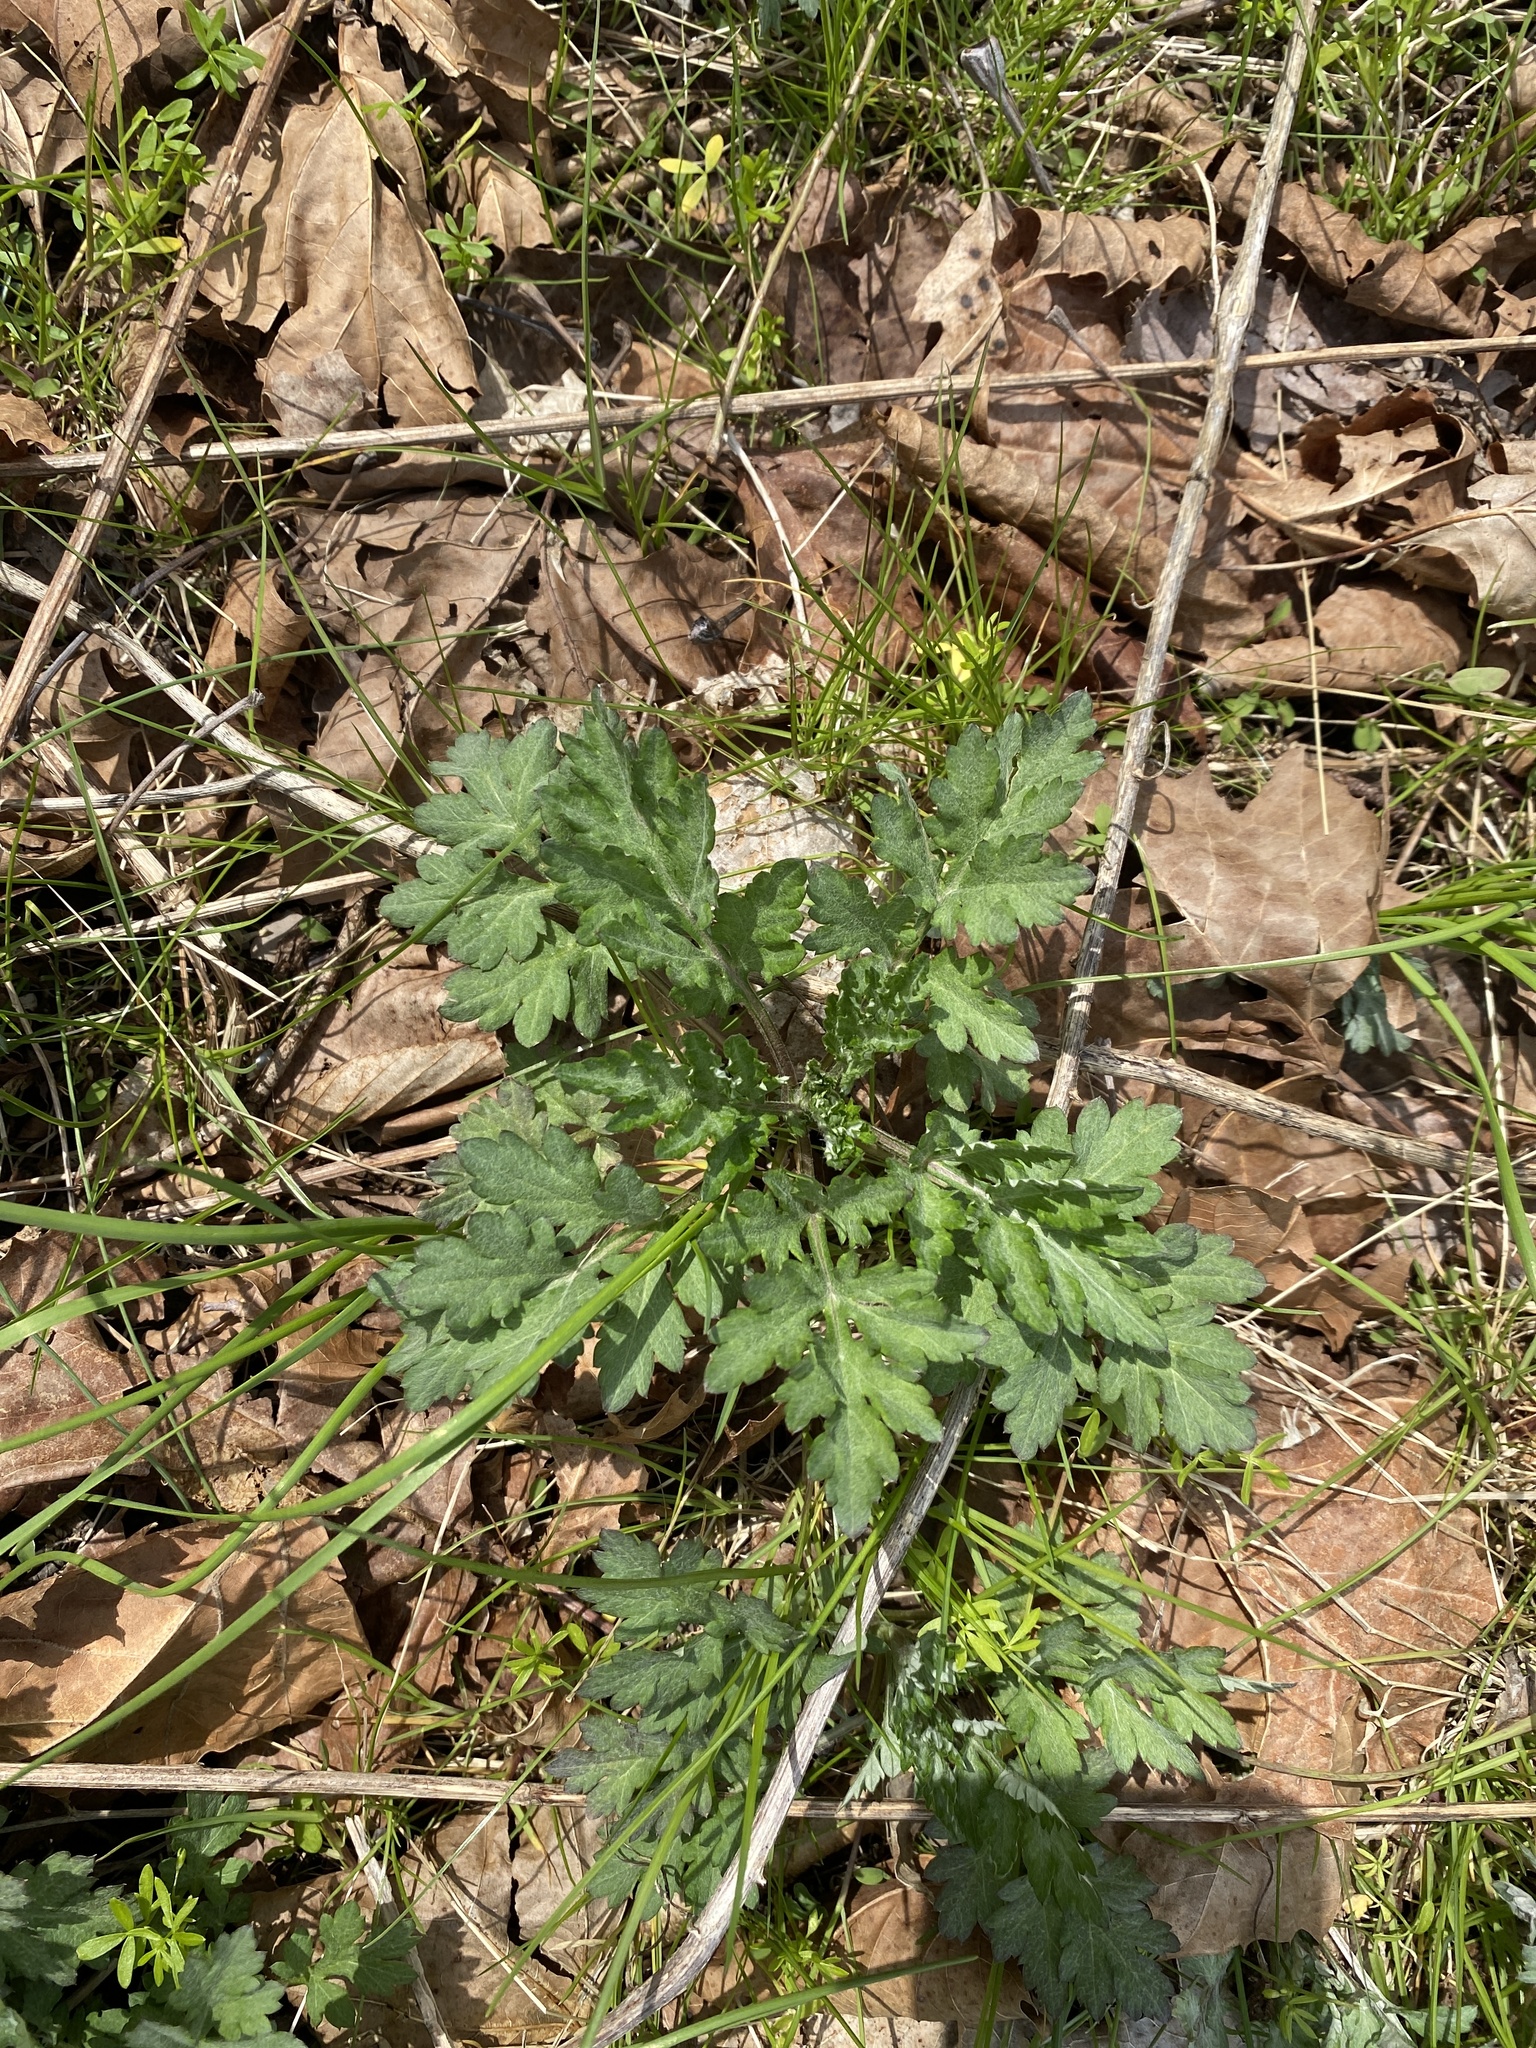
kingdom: Plantae
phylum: Tracheophyta
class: Magnoliopsida
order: Asterales
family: Asteraceae
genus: Artemisia
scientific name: Artemisia vulgaris
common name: Mugwort
